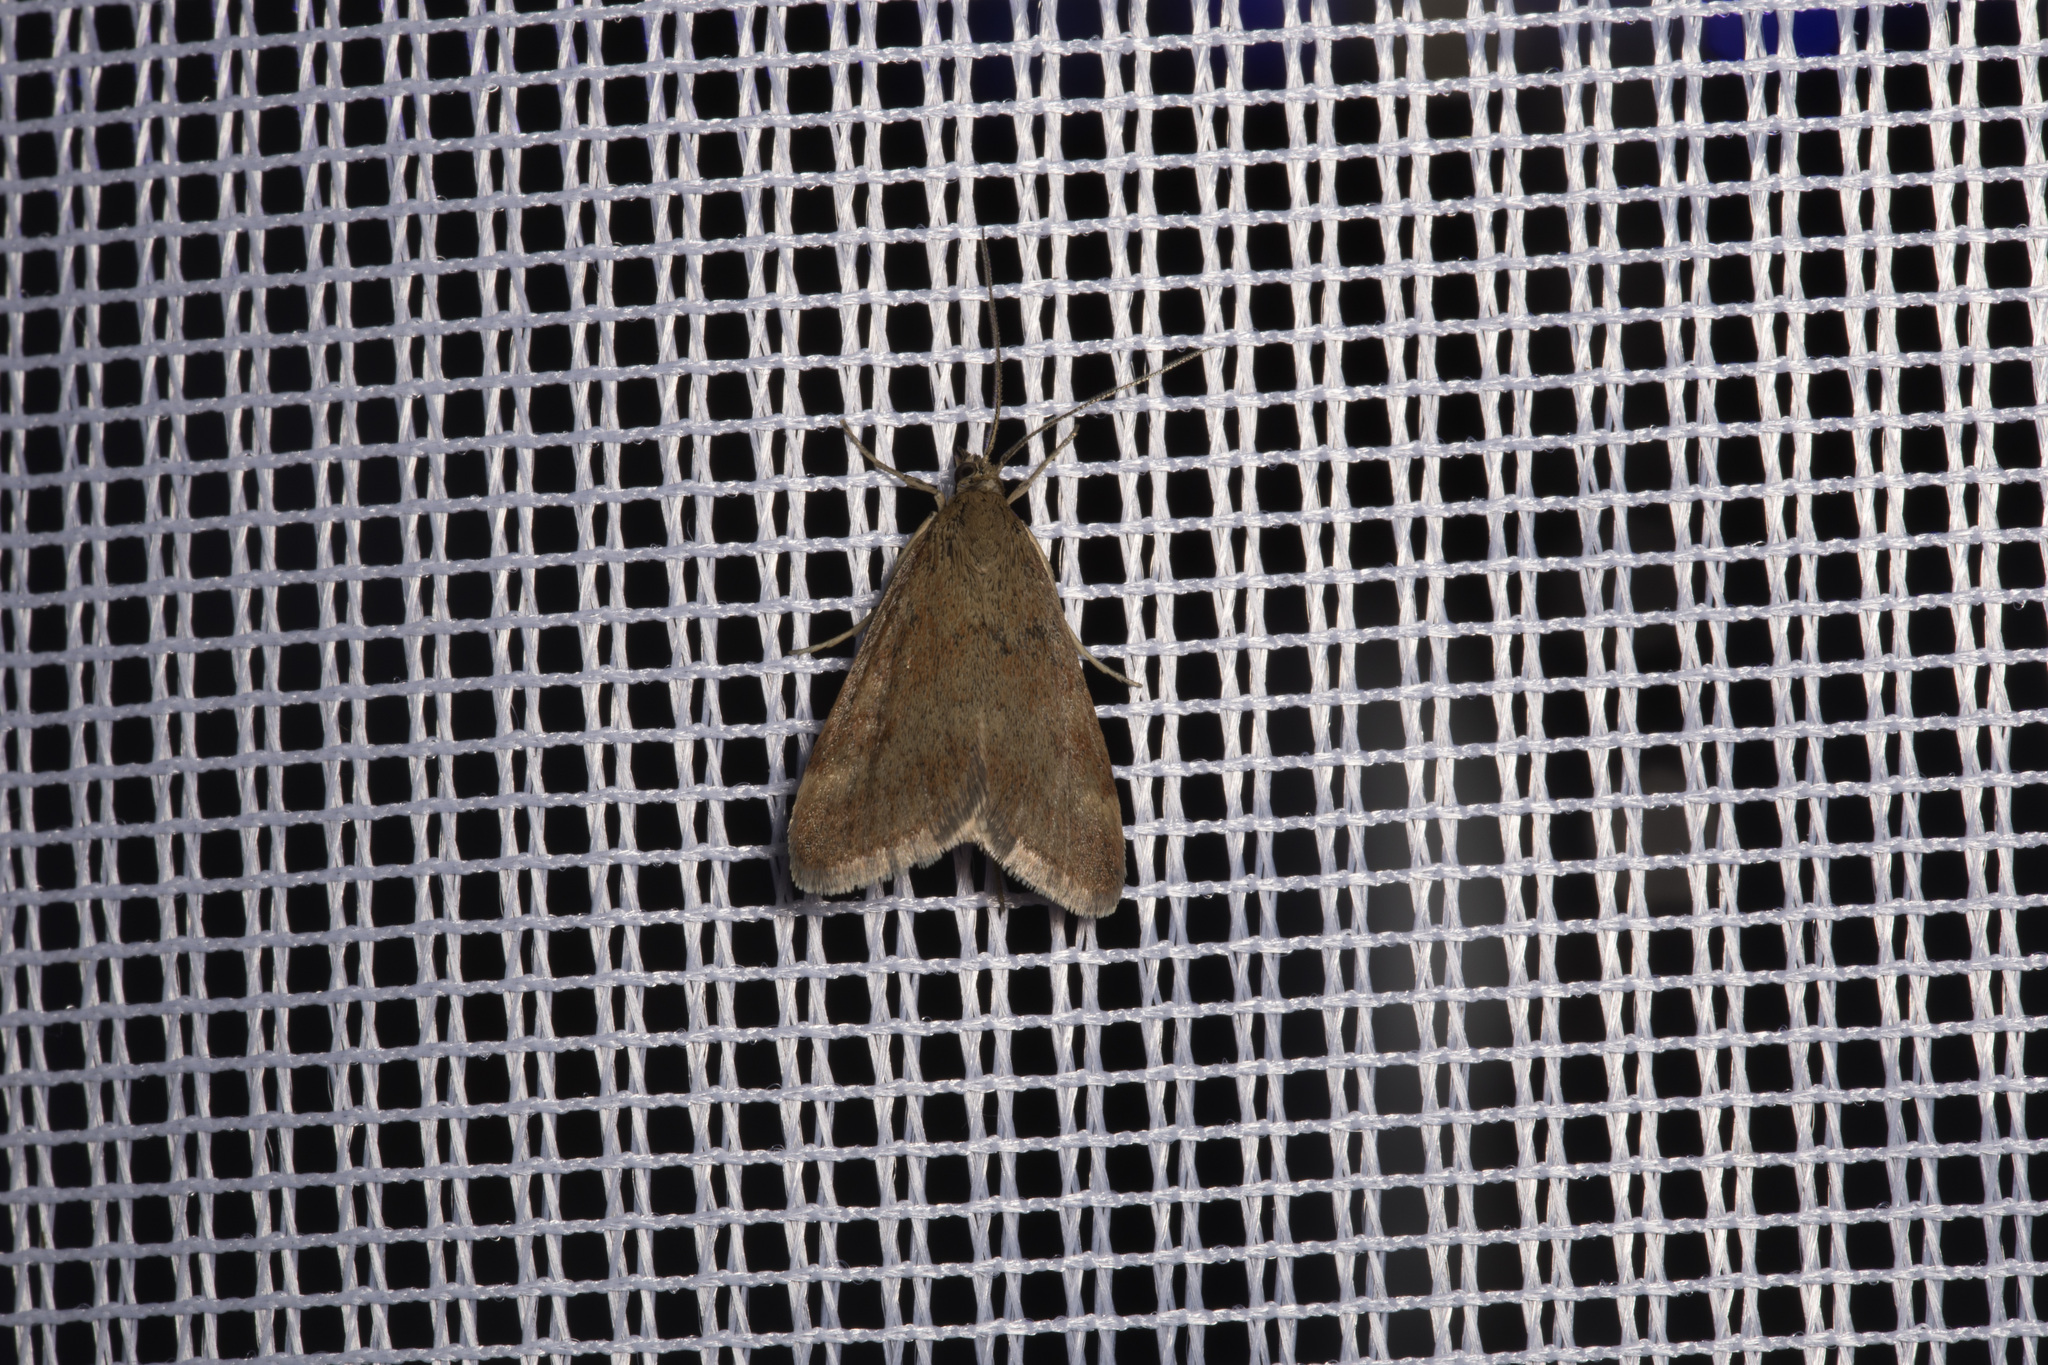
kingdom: Animalia
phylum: Arthropoda
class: Insecta
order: Lepidoptera
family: Crambidae
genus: Pyrausta
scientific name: Pyrausta despicata
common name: Straw-barred pearl
